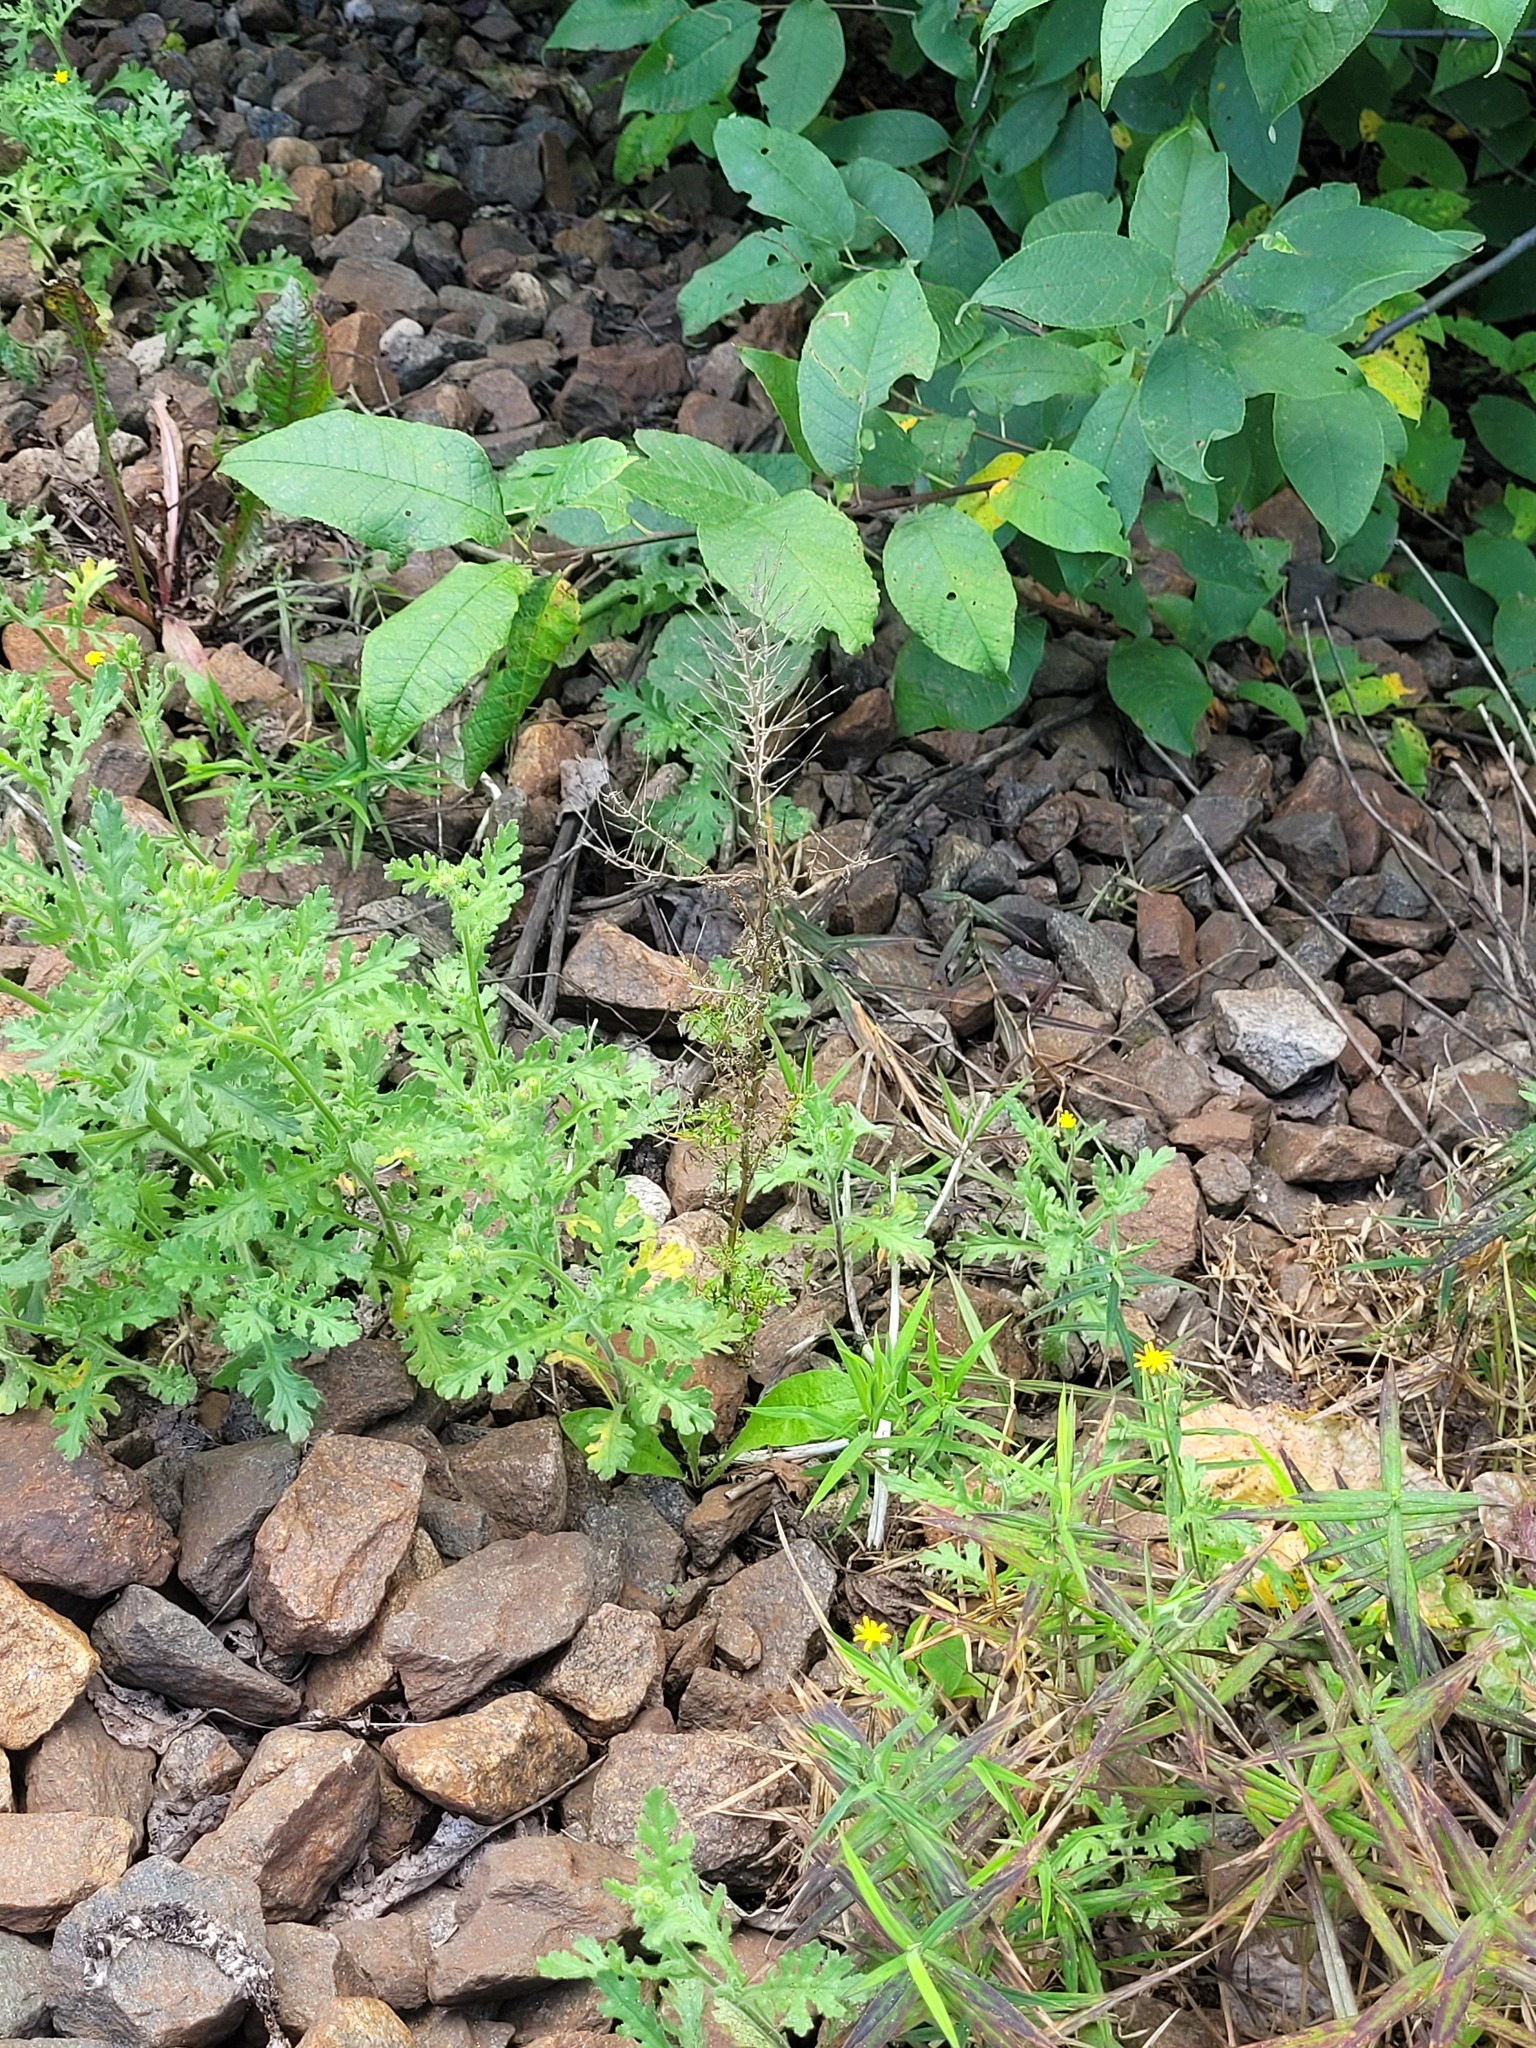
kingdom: Plantae
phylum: Tracheophyta
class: Magnoliopsida
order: Asterales
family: Asteraceae
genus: Senecio
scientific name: Senecio viscosus
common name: Sticky groundsel
